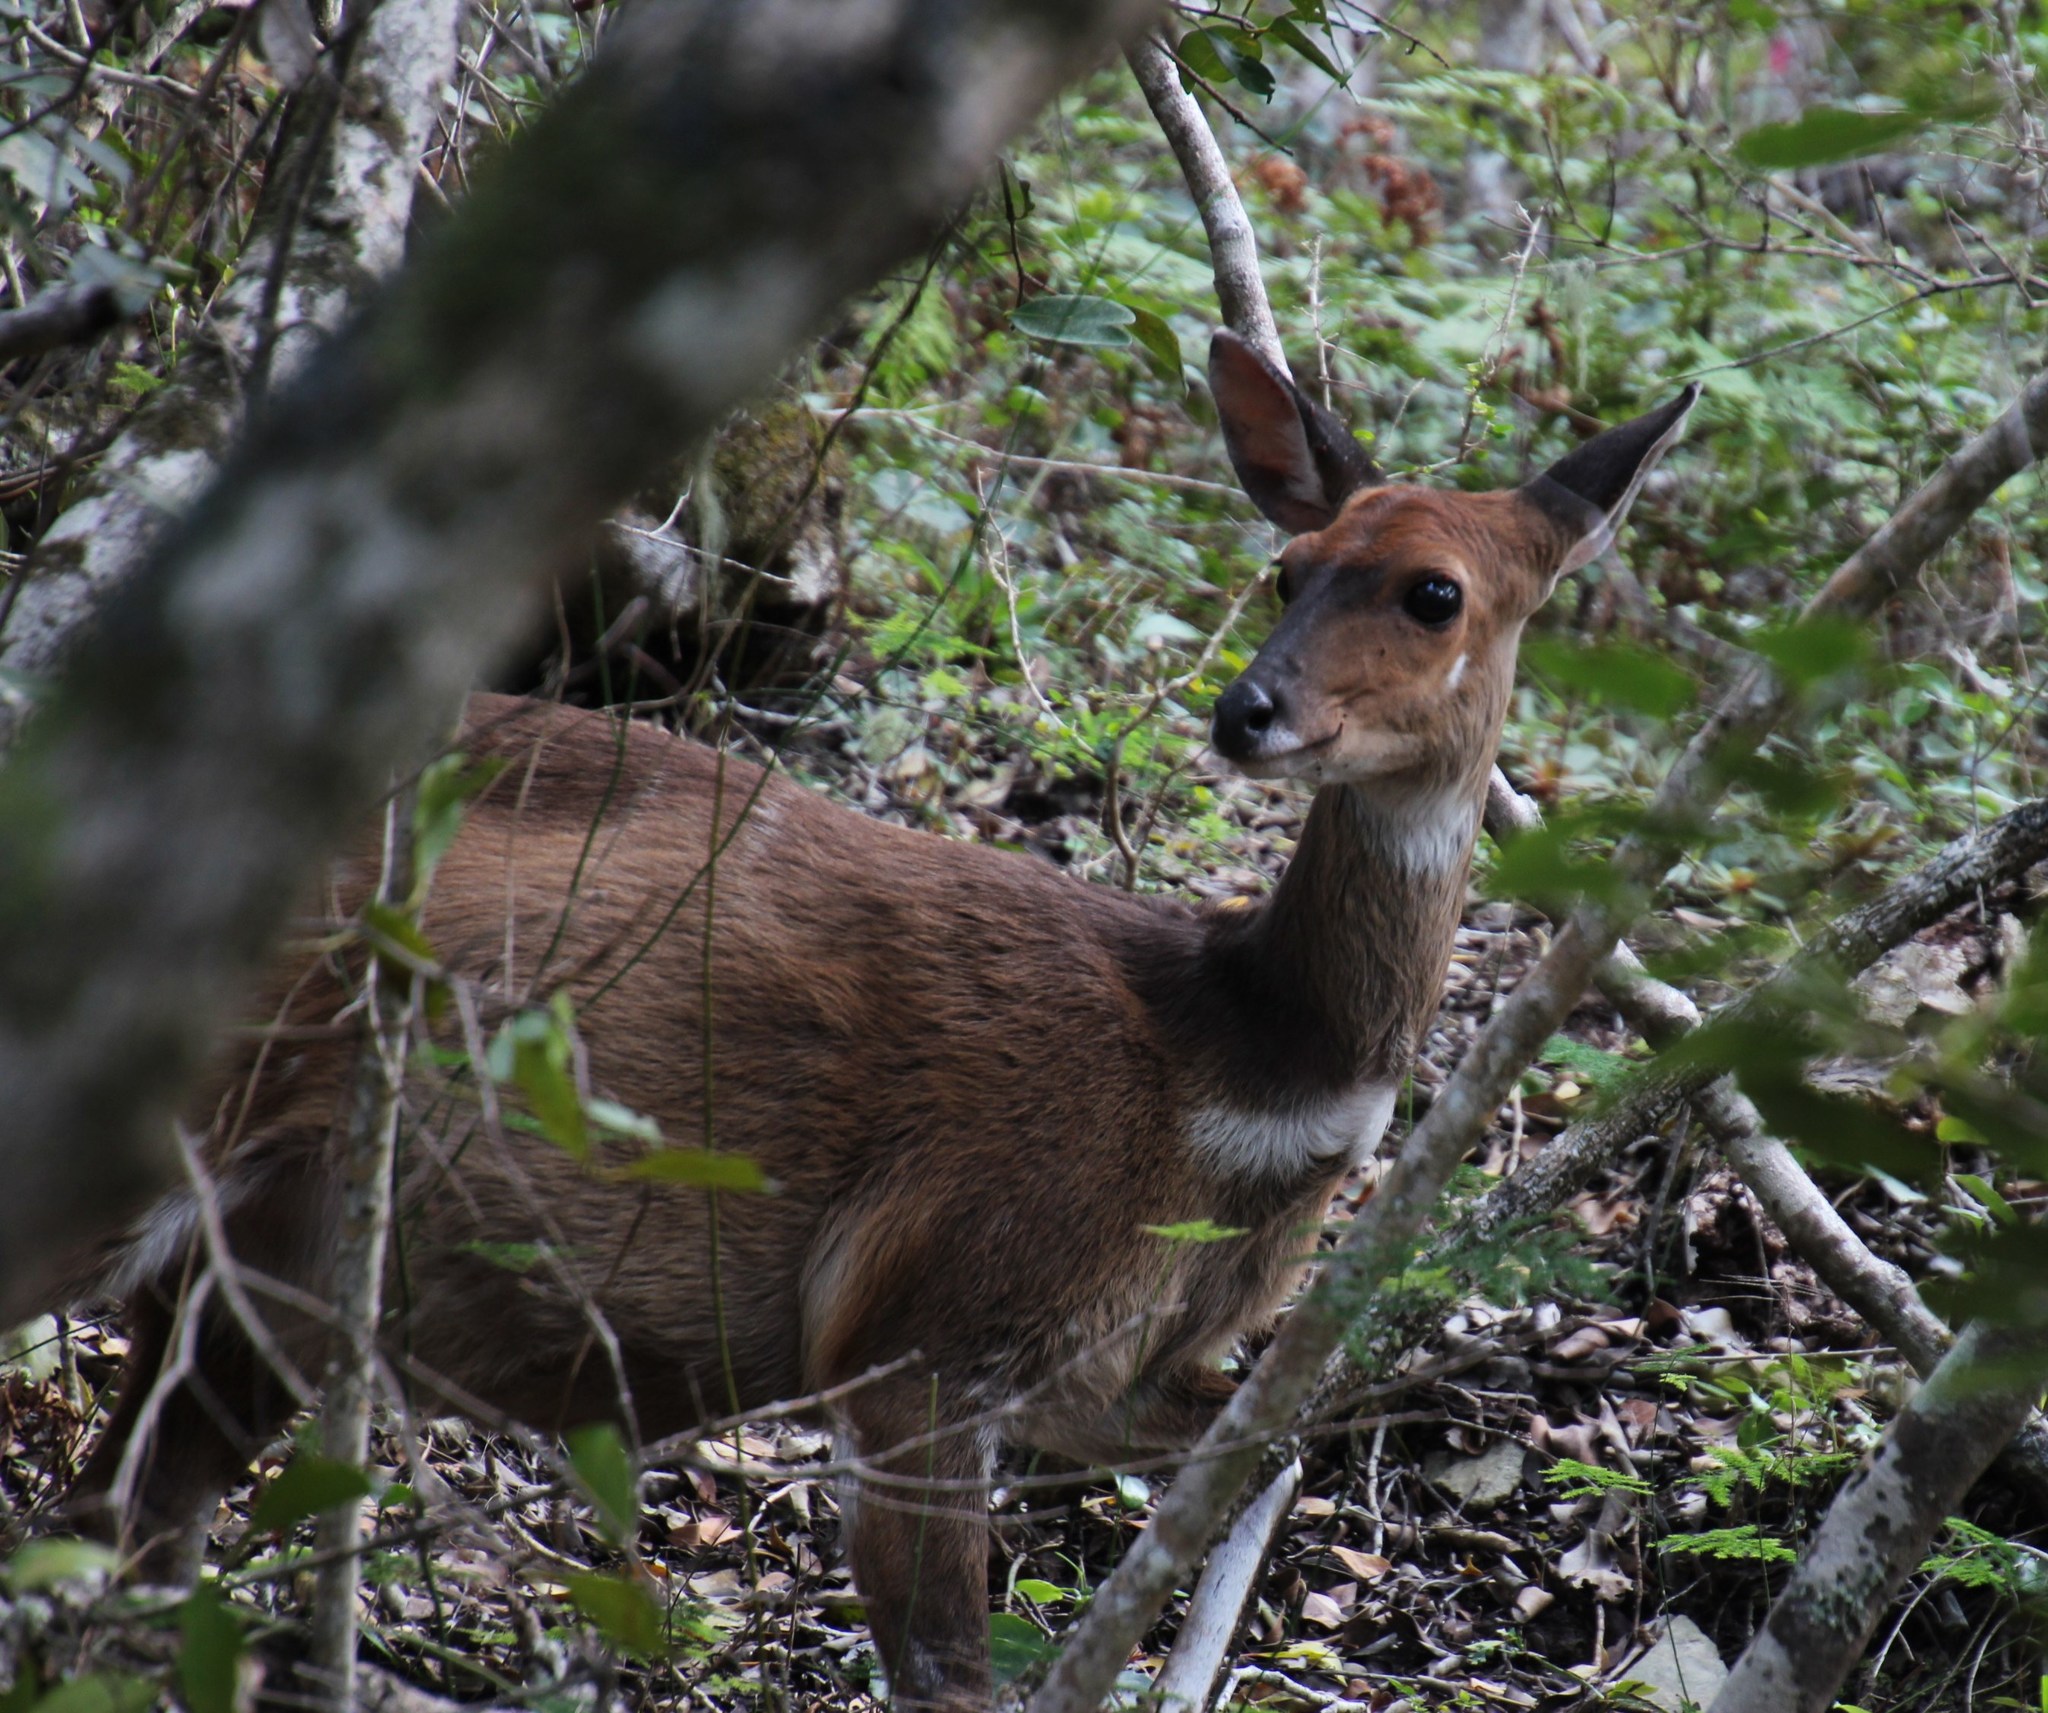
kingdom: Animalia
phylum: Chordata
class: Mammalia
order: Artiodactyla
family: Bovidae
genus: Tragelaphus
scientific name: Tragelaphus scriptus
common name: Bushbuck
